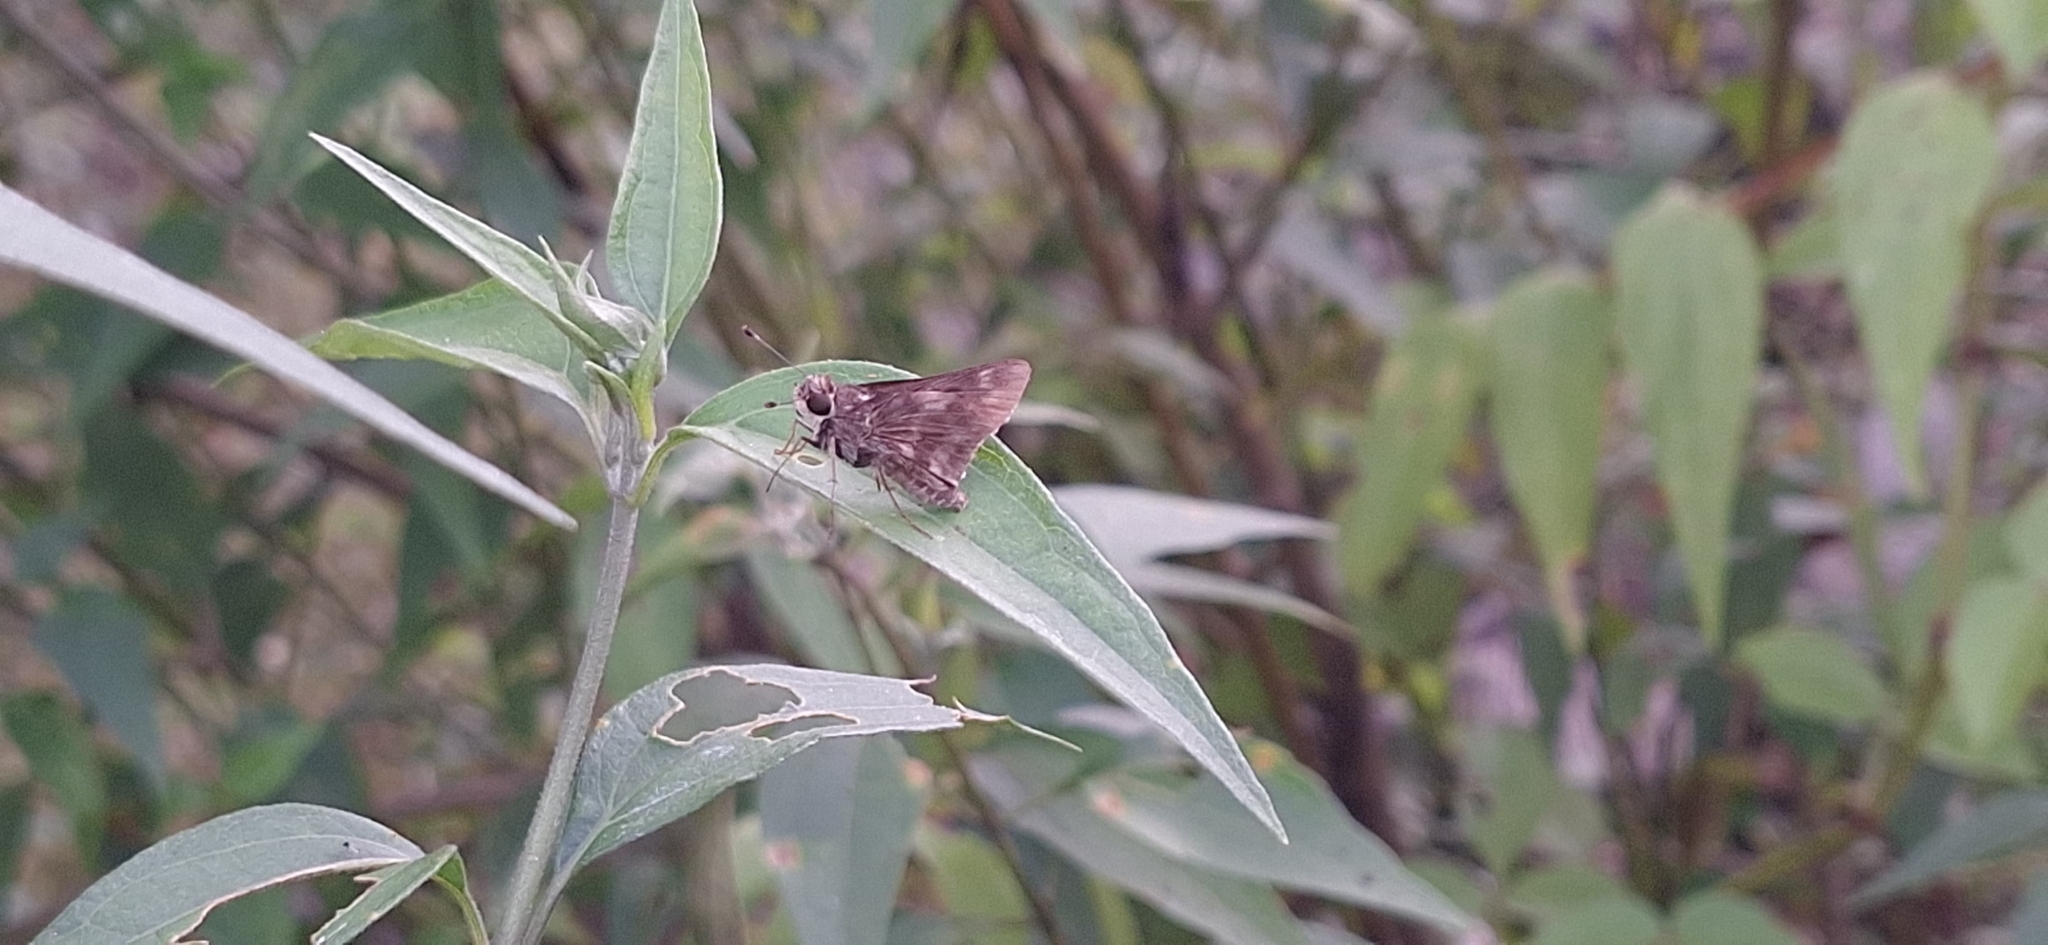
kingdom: Animalia
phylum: Arthropoda
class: Insecta
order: Lepidoptera
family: Hesperiidae
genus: Pompeius
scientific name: Pompeius pompeius
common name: Pompeius skipper
